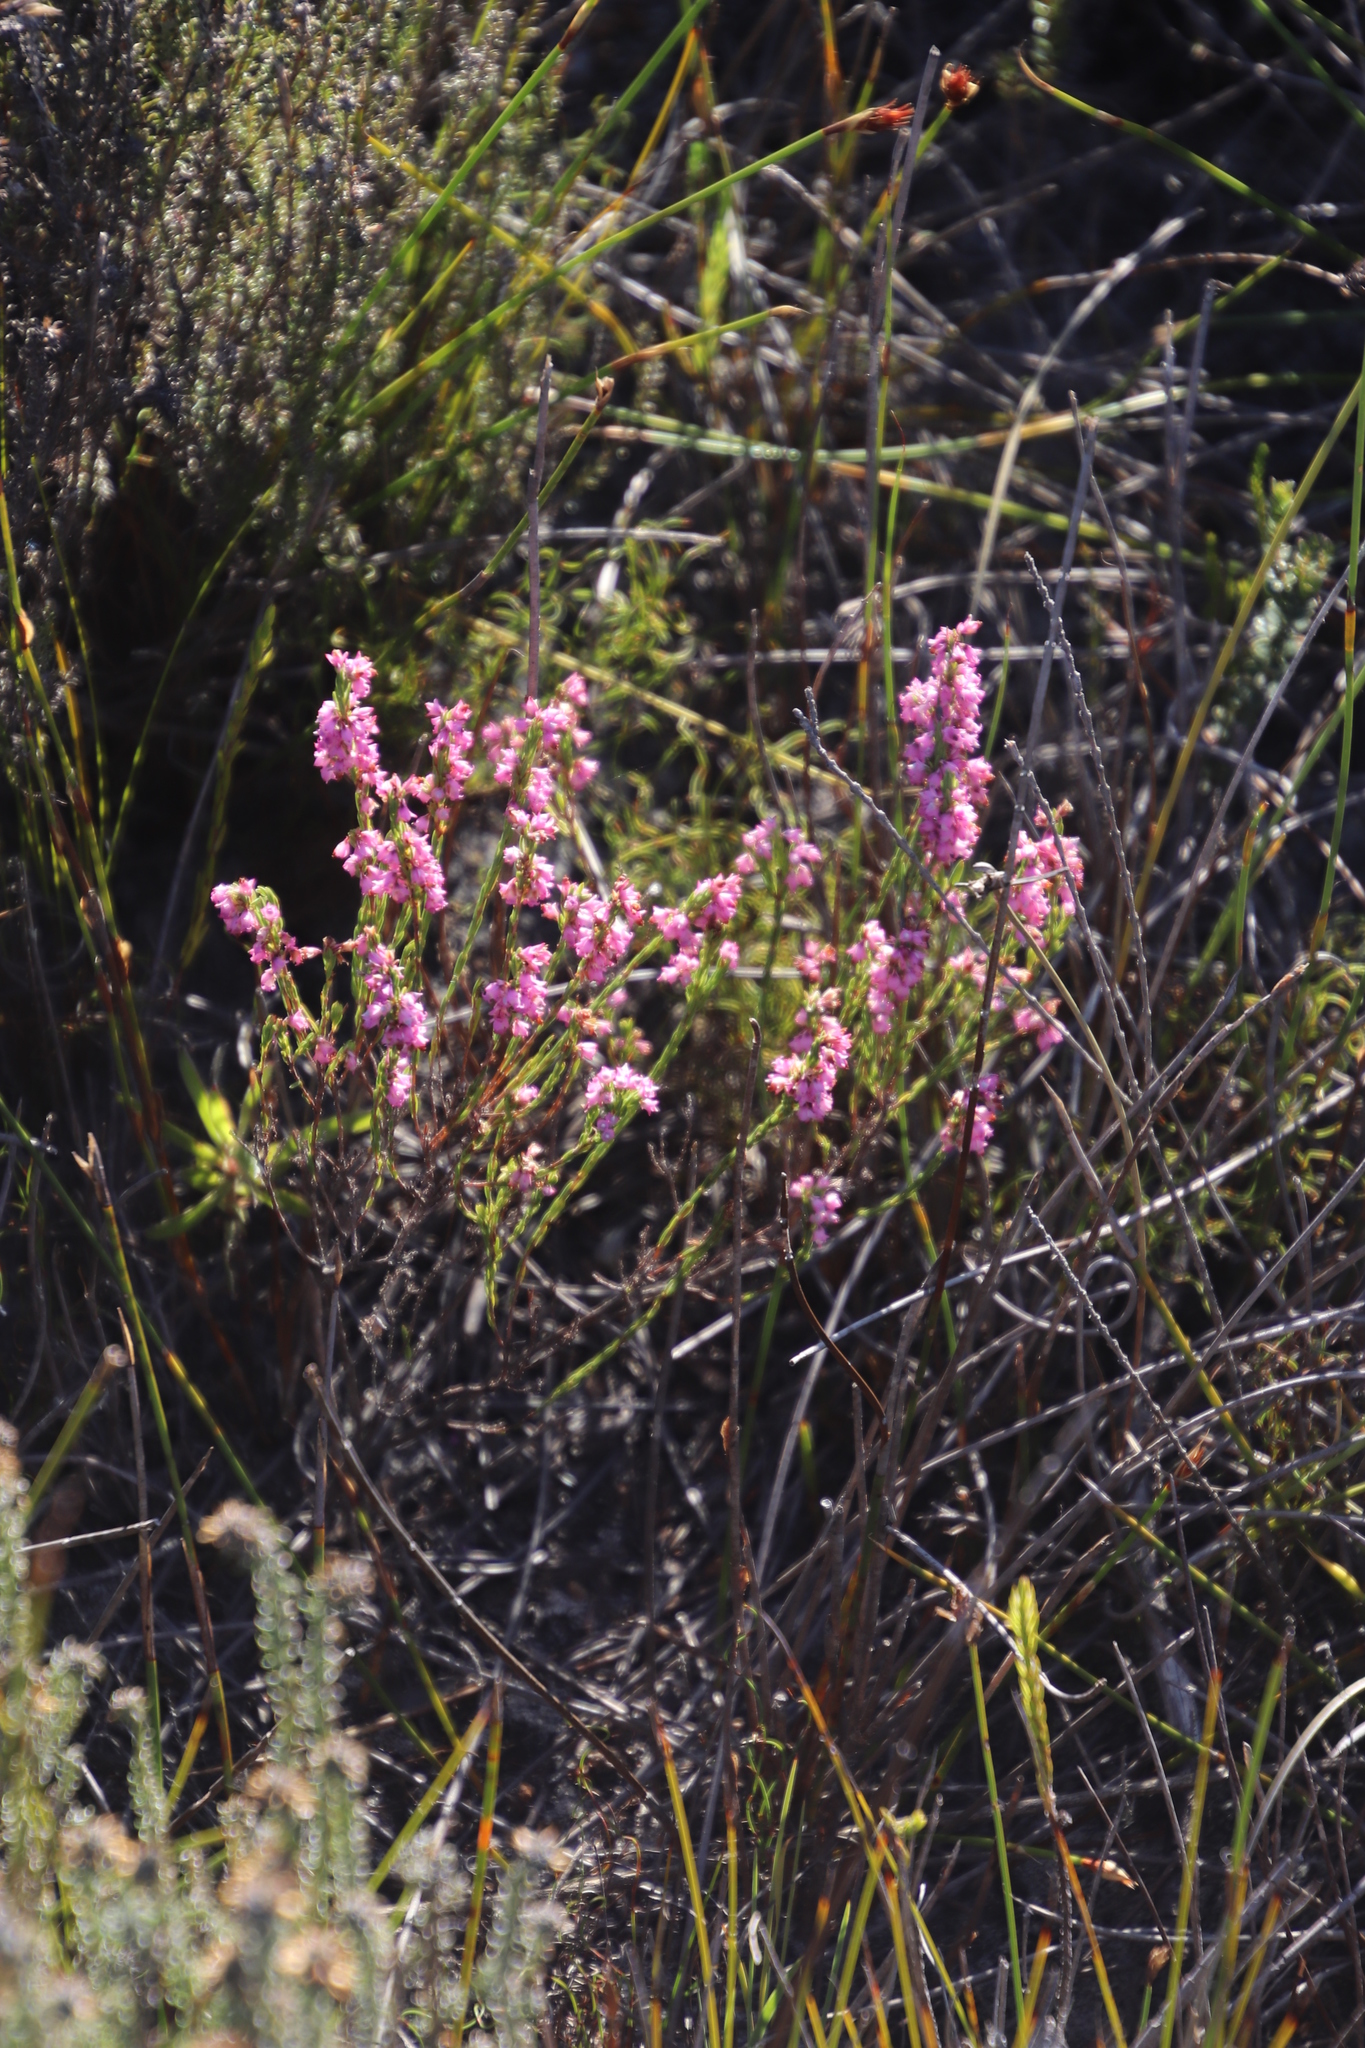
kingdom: Plantae
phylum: Tracheophyta
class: Magnoliopsida
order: Ericales
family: Ericaceae
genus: Erica
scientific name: Erica corifolia
